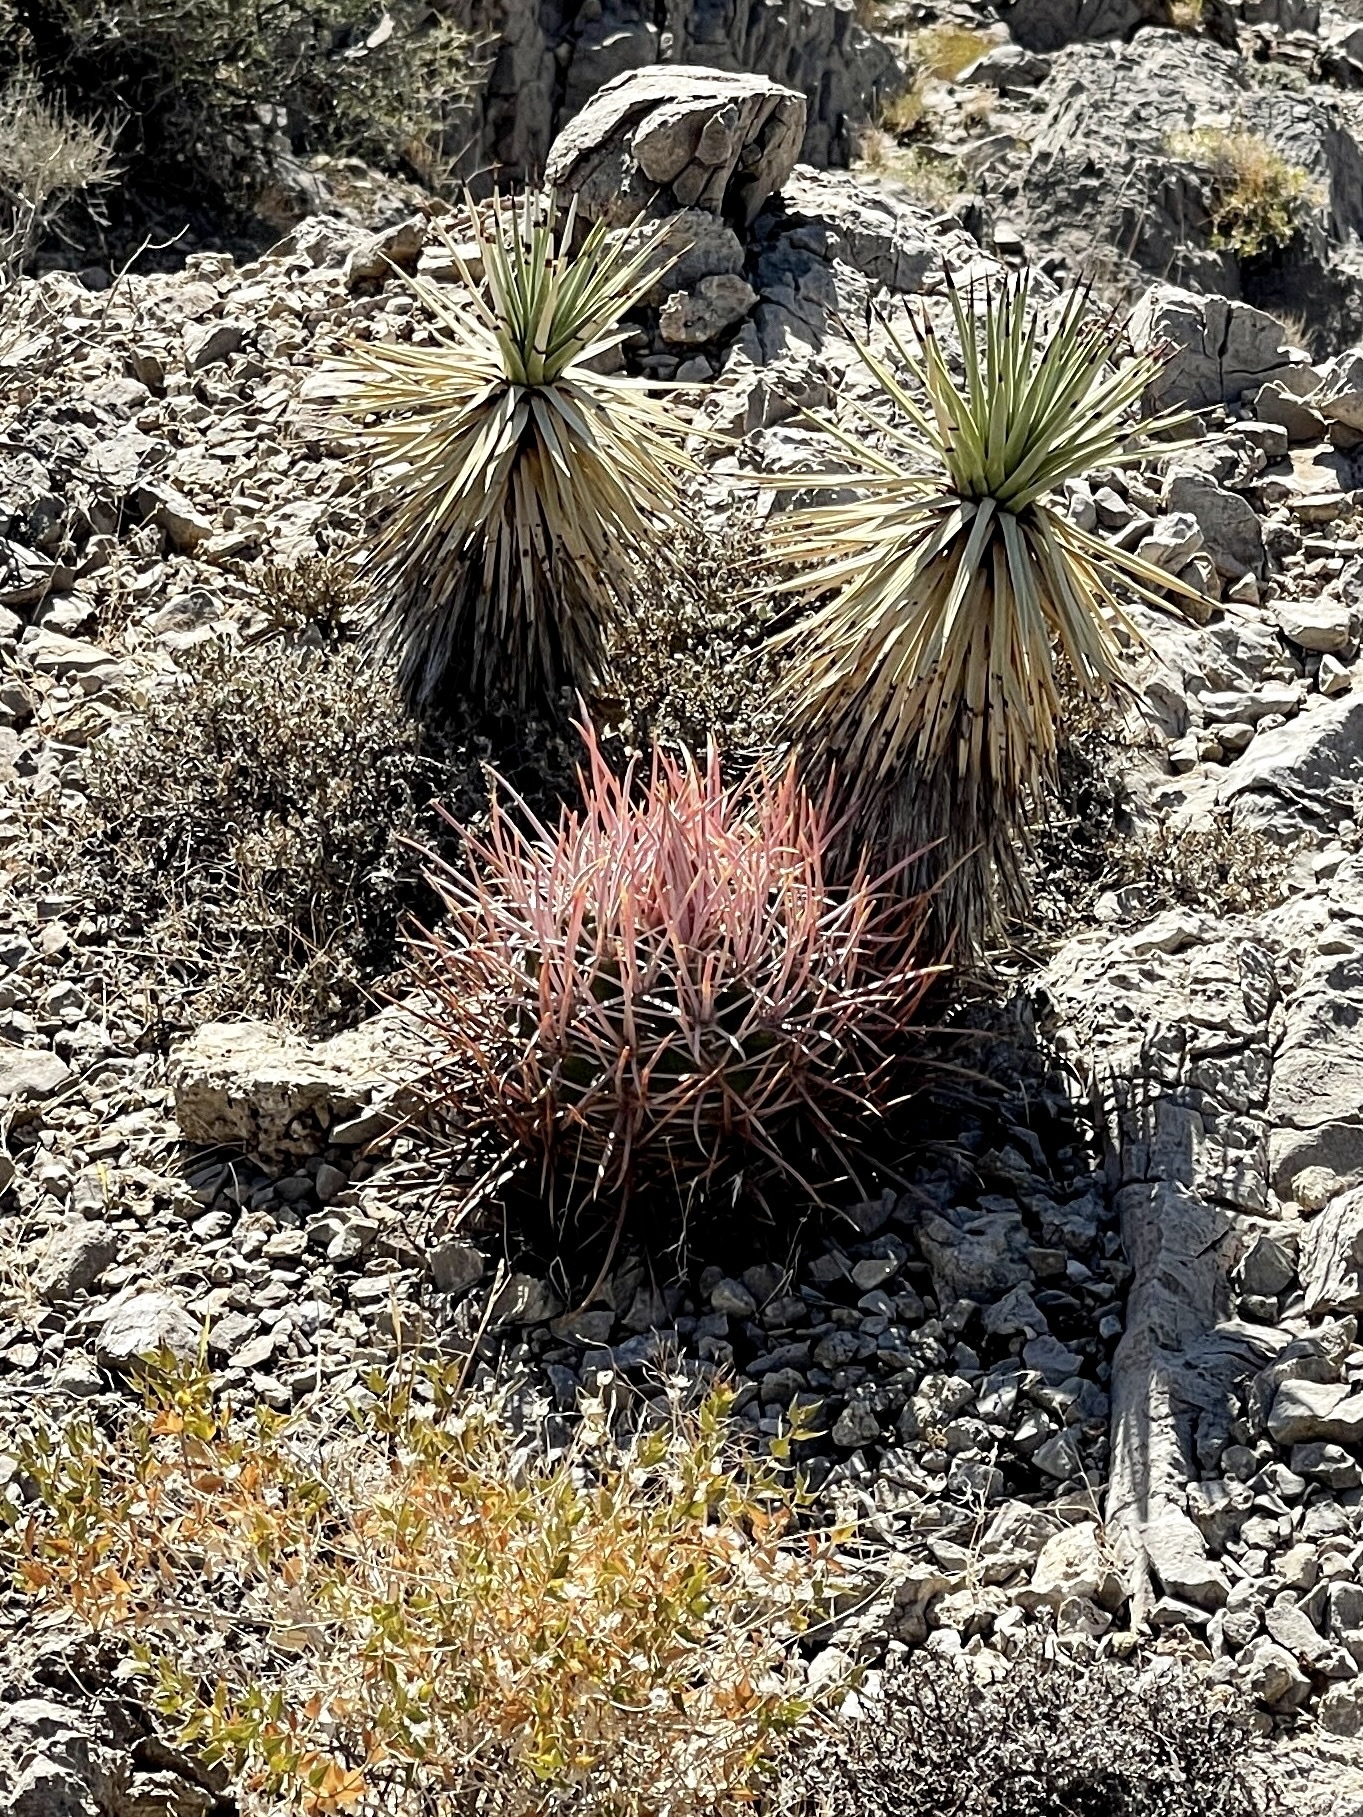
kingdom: Plantae
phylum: Tracheophyta
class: Magnoliopsida
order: Caryophyllales
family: Cactaceae
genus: Echinocactus
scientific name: Echinocactus polycephalus
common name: Cottontop cactus
